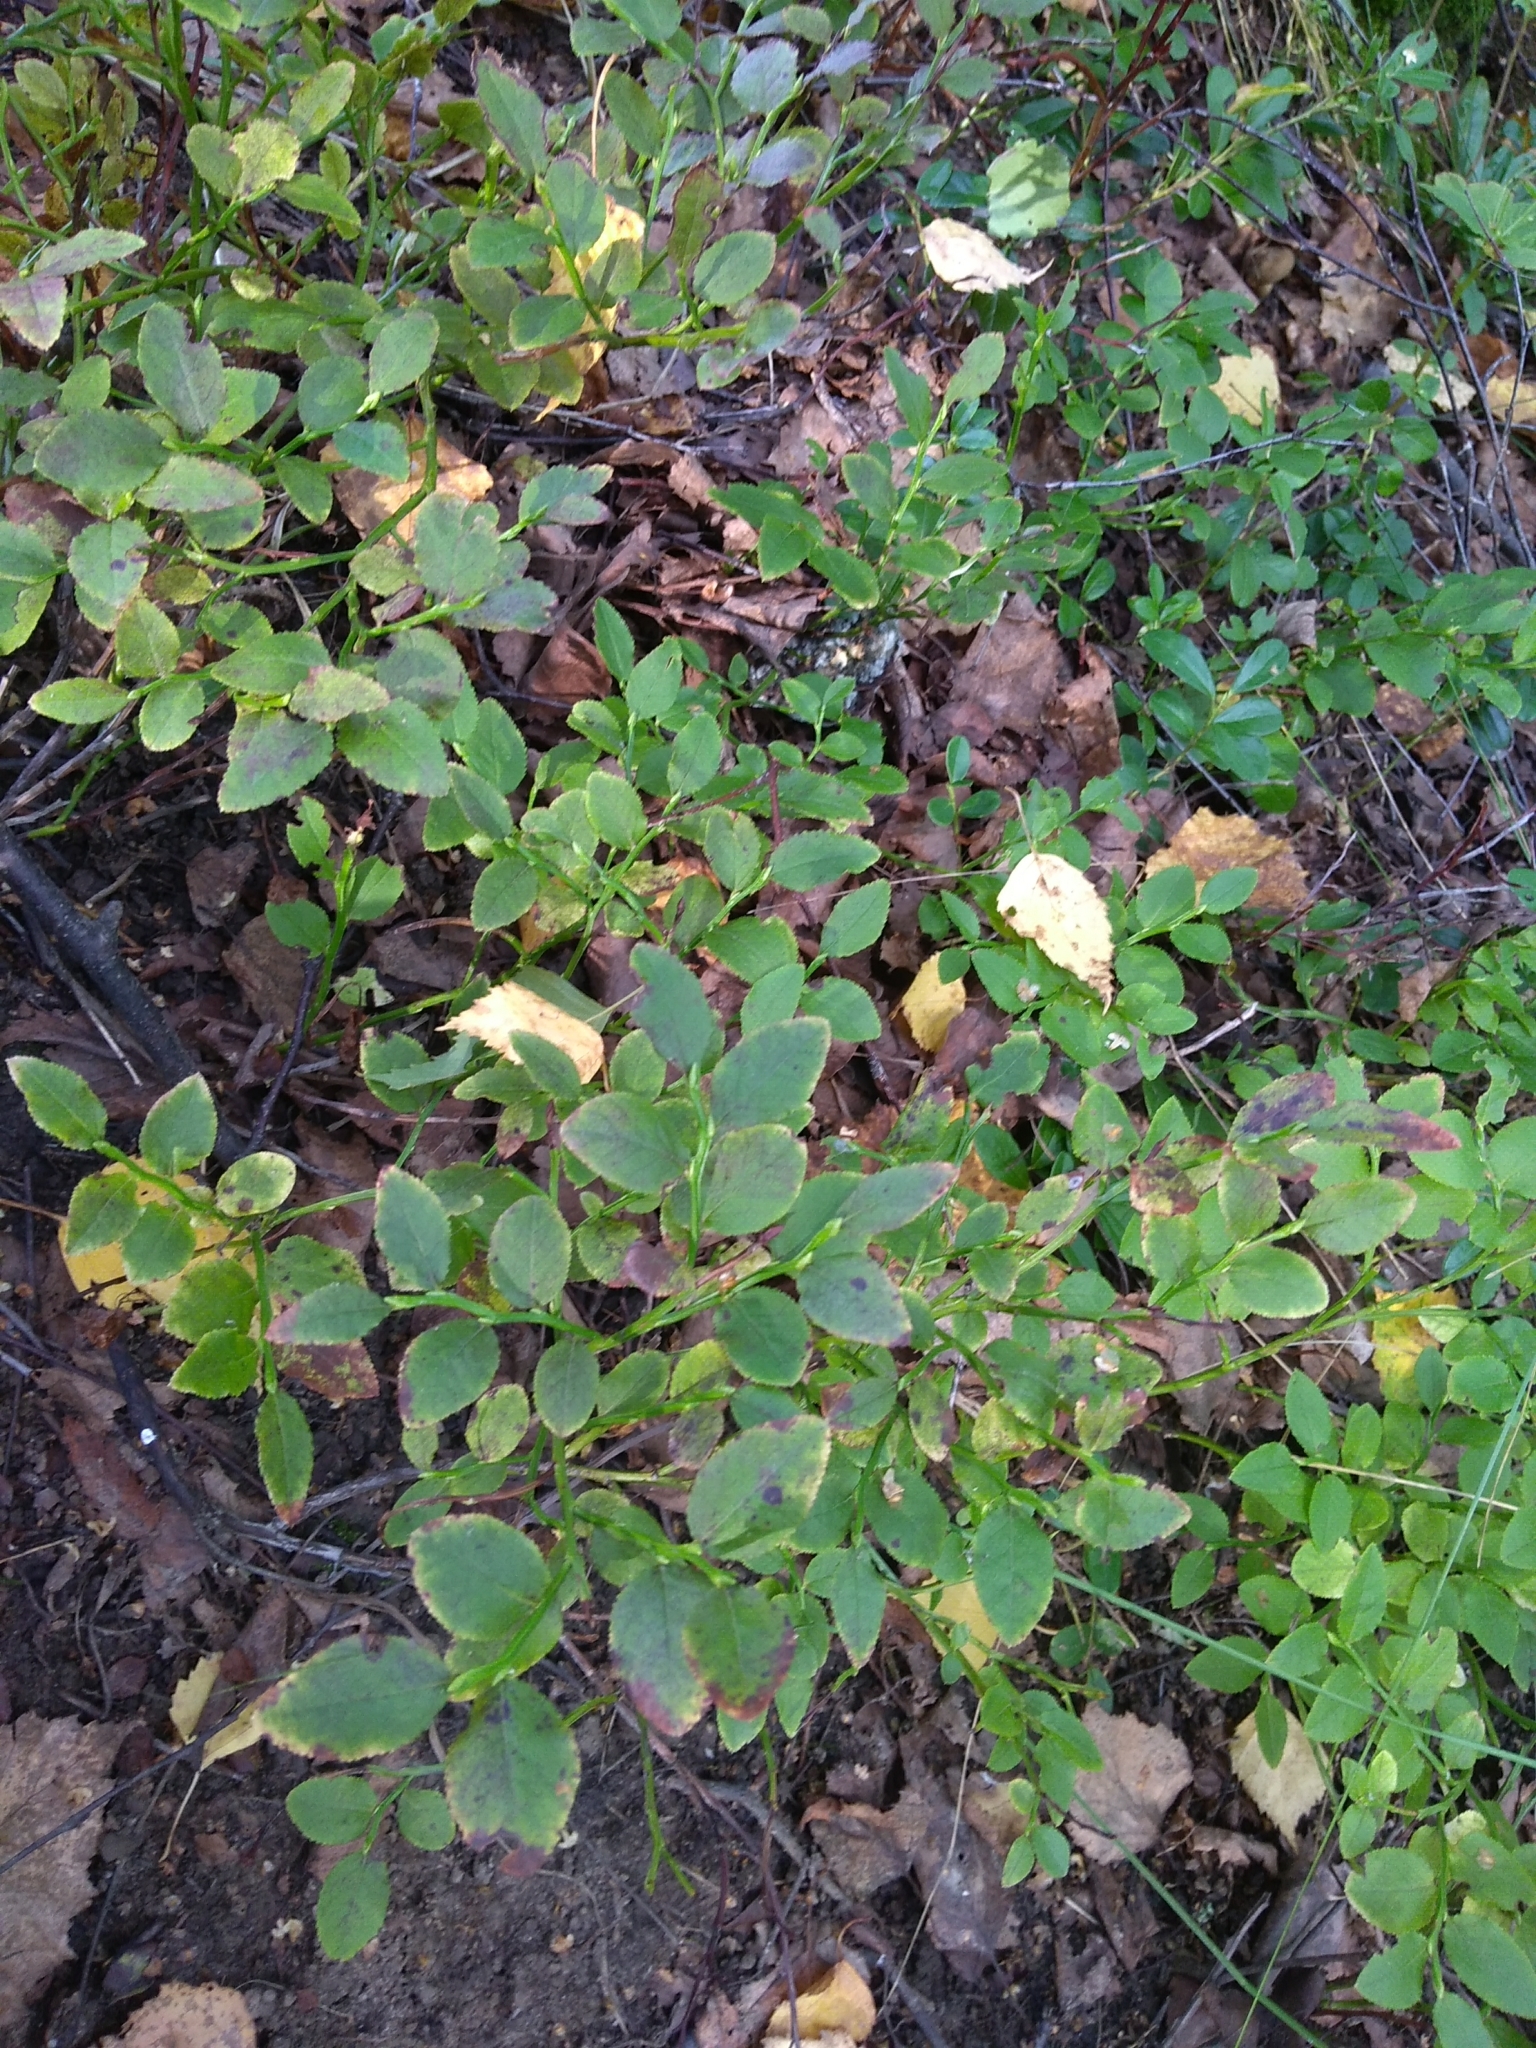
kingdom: Plantae
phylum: Tracheophyta
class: Magnoliopsida
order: Ericales
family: Ericaceae
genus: Vaccinium
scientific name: Vaccinium myrtillus
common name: Bilberry
